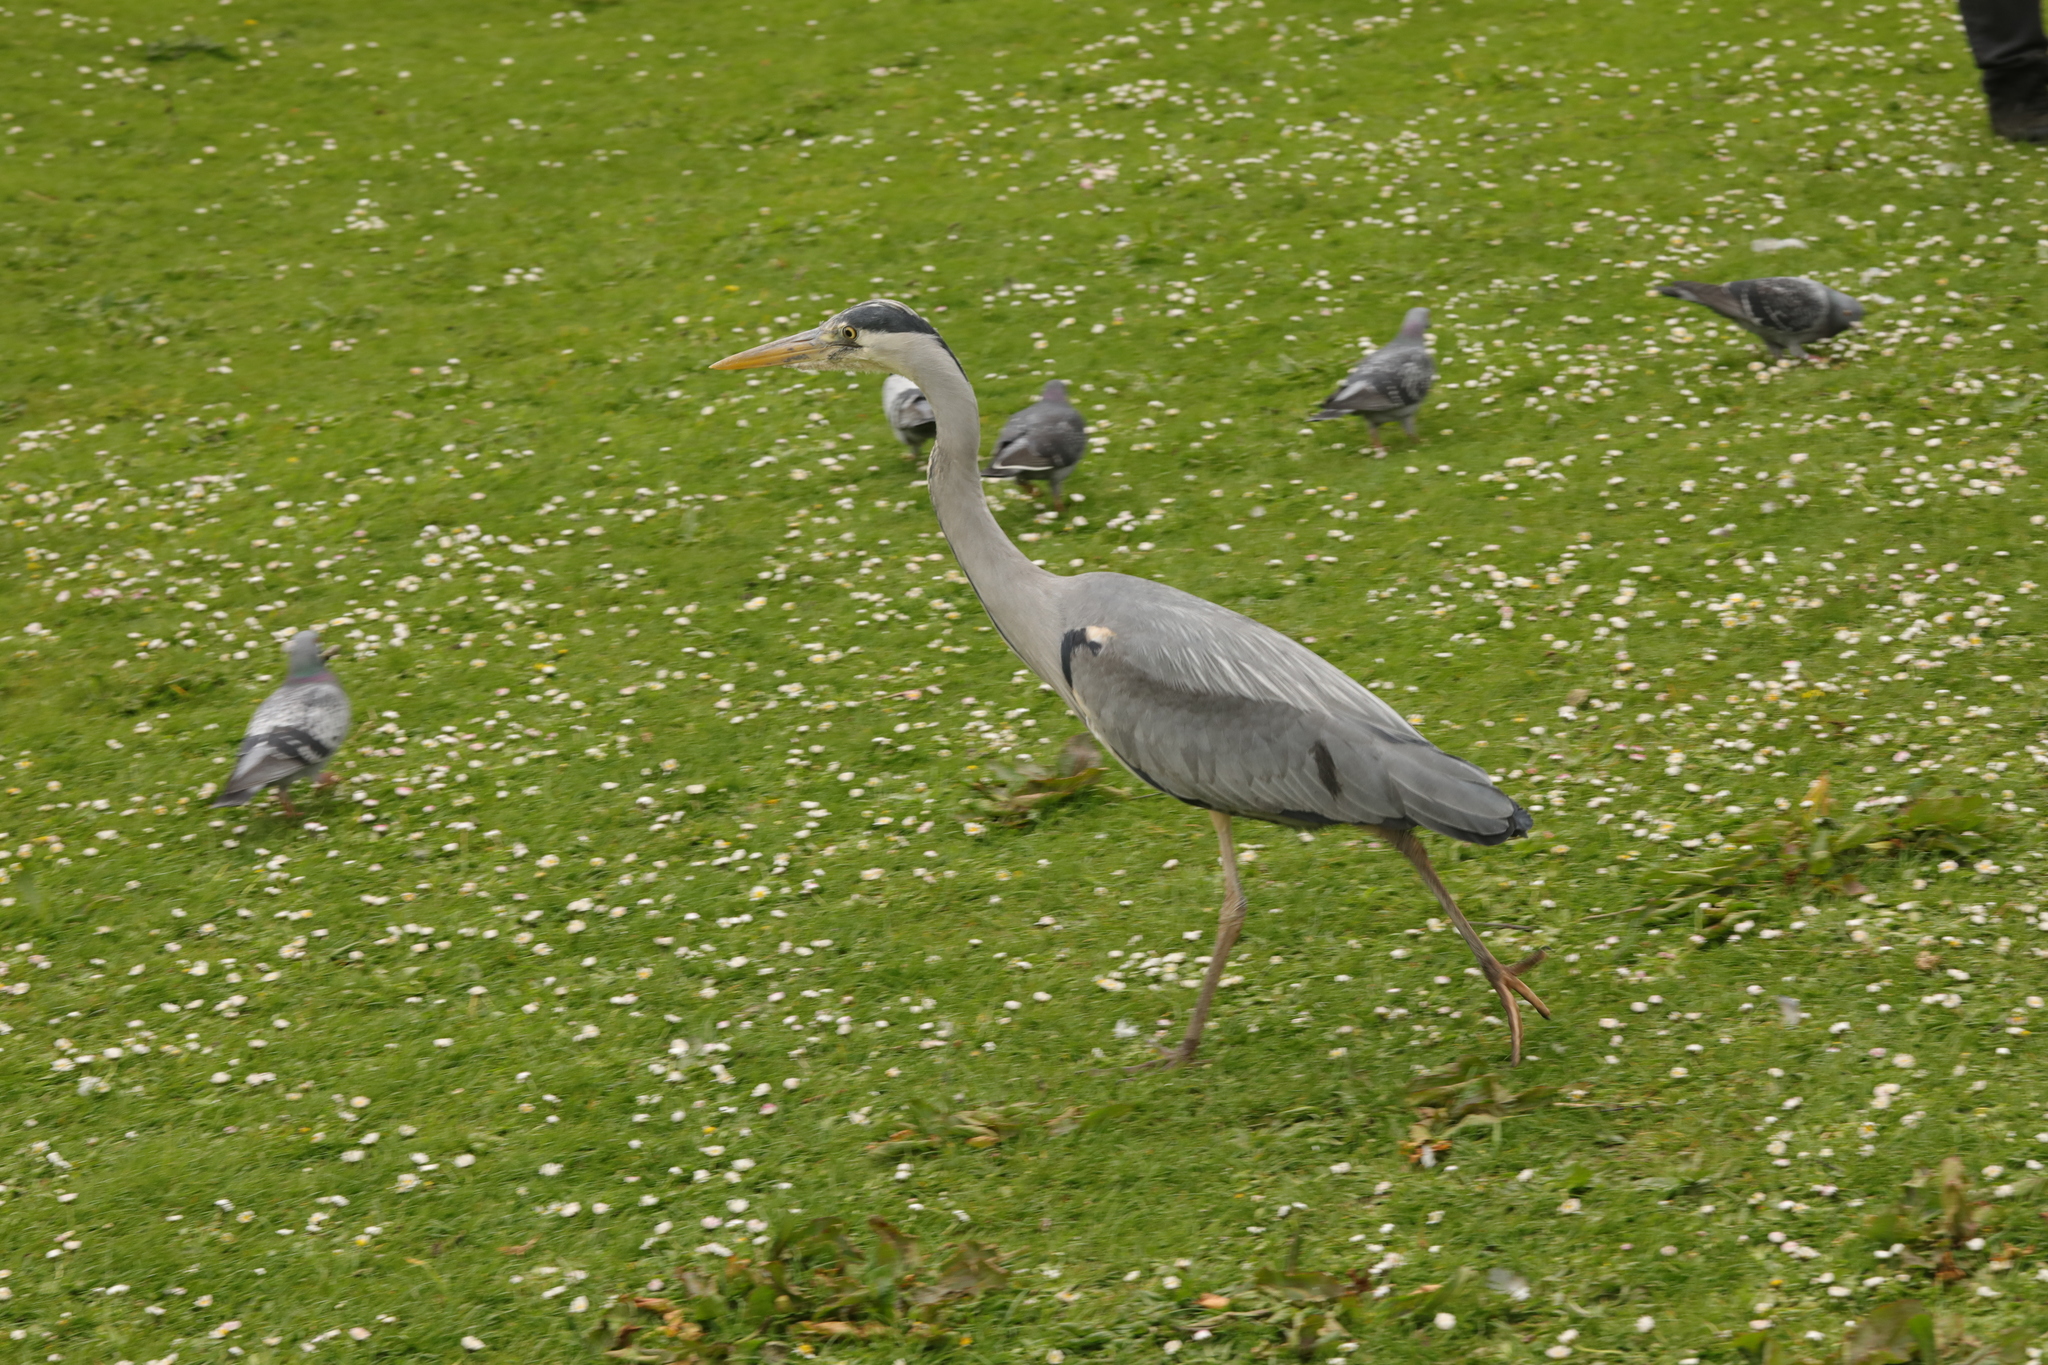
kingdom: Animalia
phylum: Chordata
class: Aves
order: Pelecaniformes
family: Ardeidae
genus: Ardea
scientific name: Ardea cinerea
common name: Grey heron
